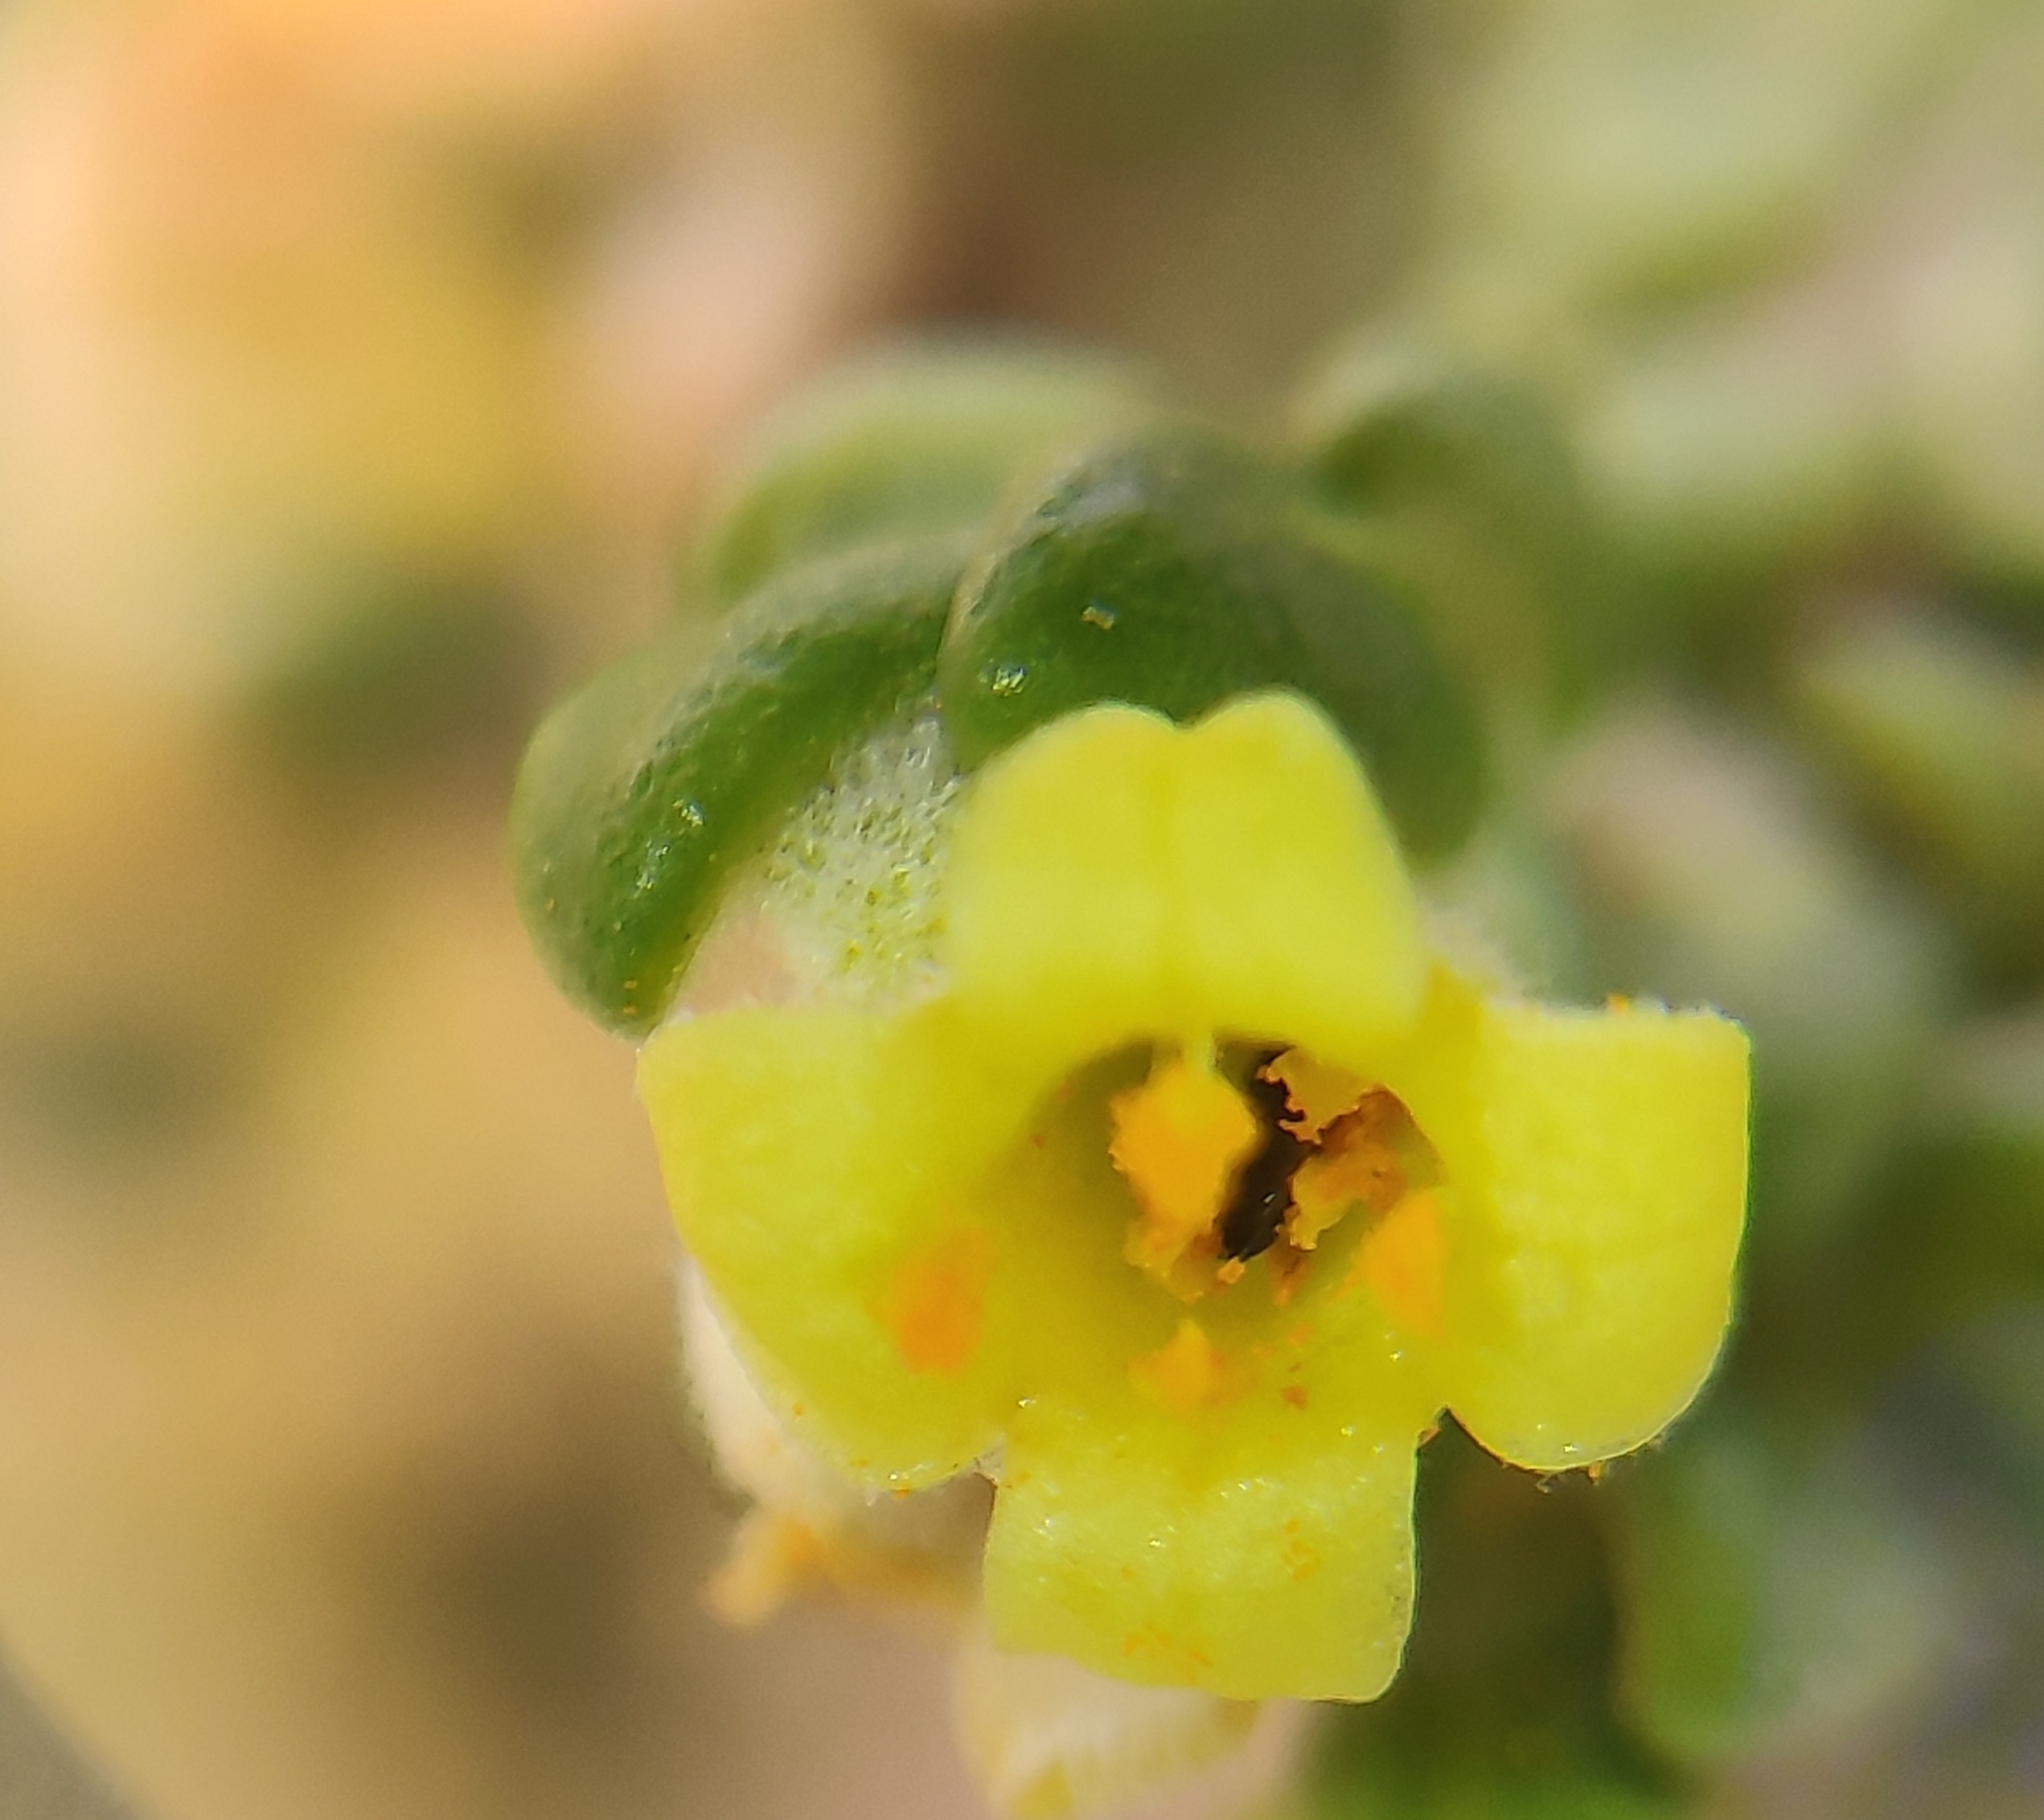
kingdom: Plantae
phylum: Tracheophyta
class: Magnoliopsida
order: Malvales
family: Thymelaeaceae
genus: Thymelaea
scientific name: Thymelaea hirsuta
